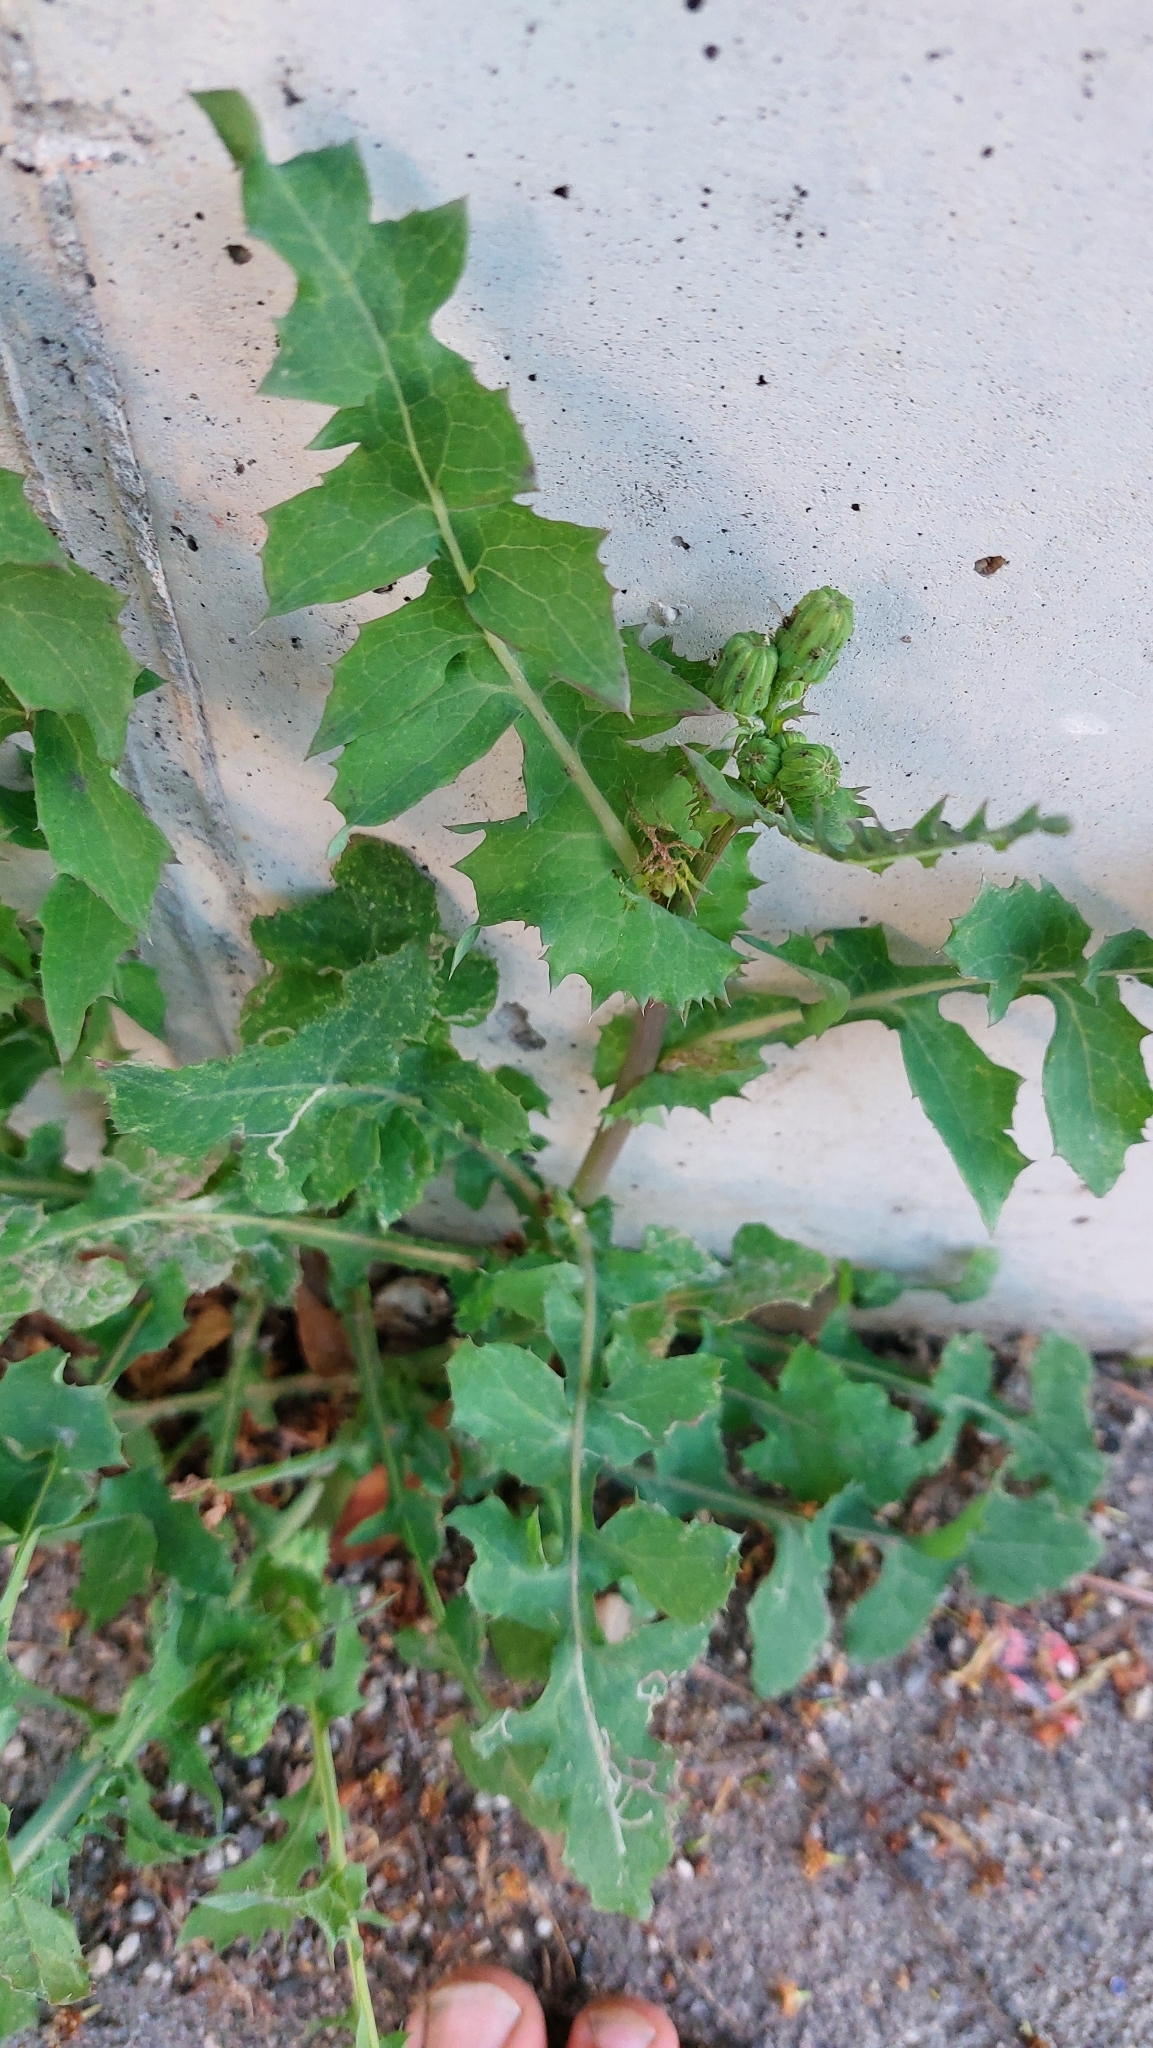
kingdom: Plantae
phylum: Tracheophyta
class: Magnoliopsida
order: Asterales
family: Asteraceae
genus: Sonchus
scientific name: Sonchus oleraceus
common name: Common sowthistle
